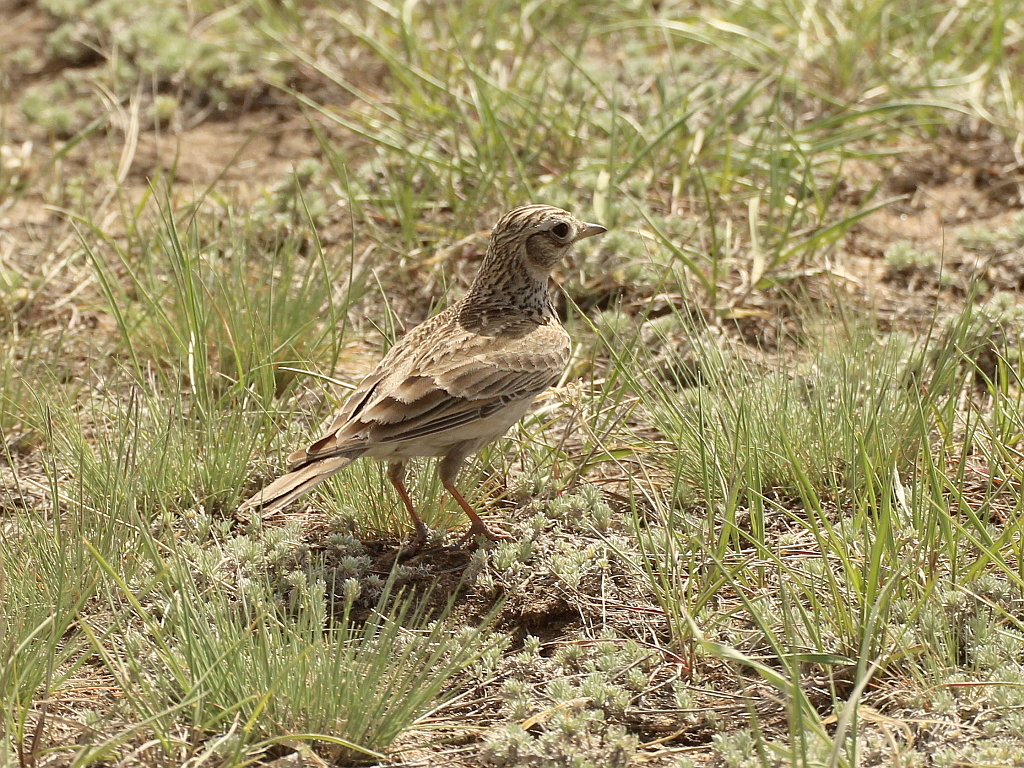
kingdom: Animalia
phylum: Chordata
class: Aves
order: Passeriformes
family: Alaudidae
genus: Alauda
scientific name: Alauda arvensis
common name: Eurasian skylark
